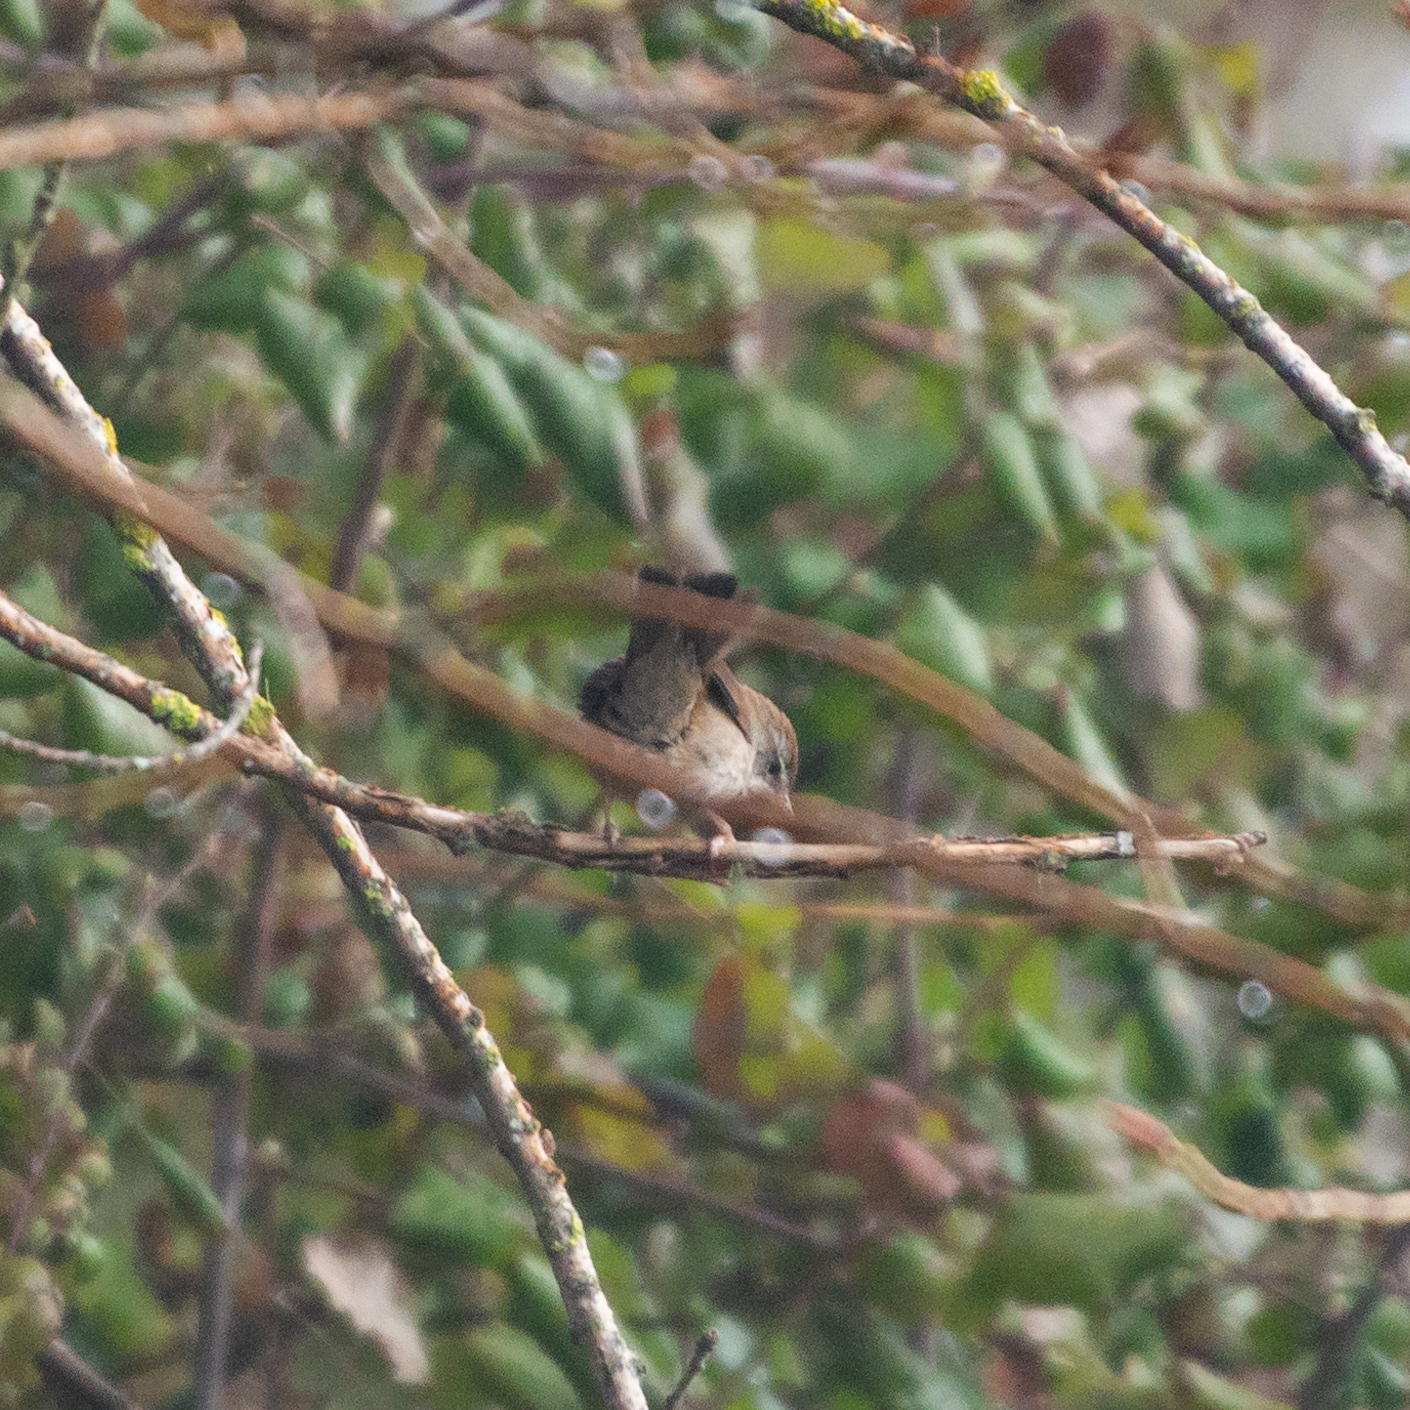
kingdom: Animalia
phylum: Chordata
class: Aves
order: Passeriformes
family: Cettiidae
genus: Cettia
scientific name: Cettia cetti
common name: Cetti's warbler
